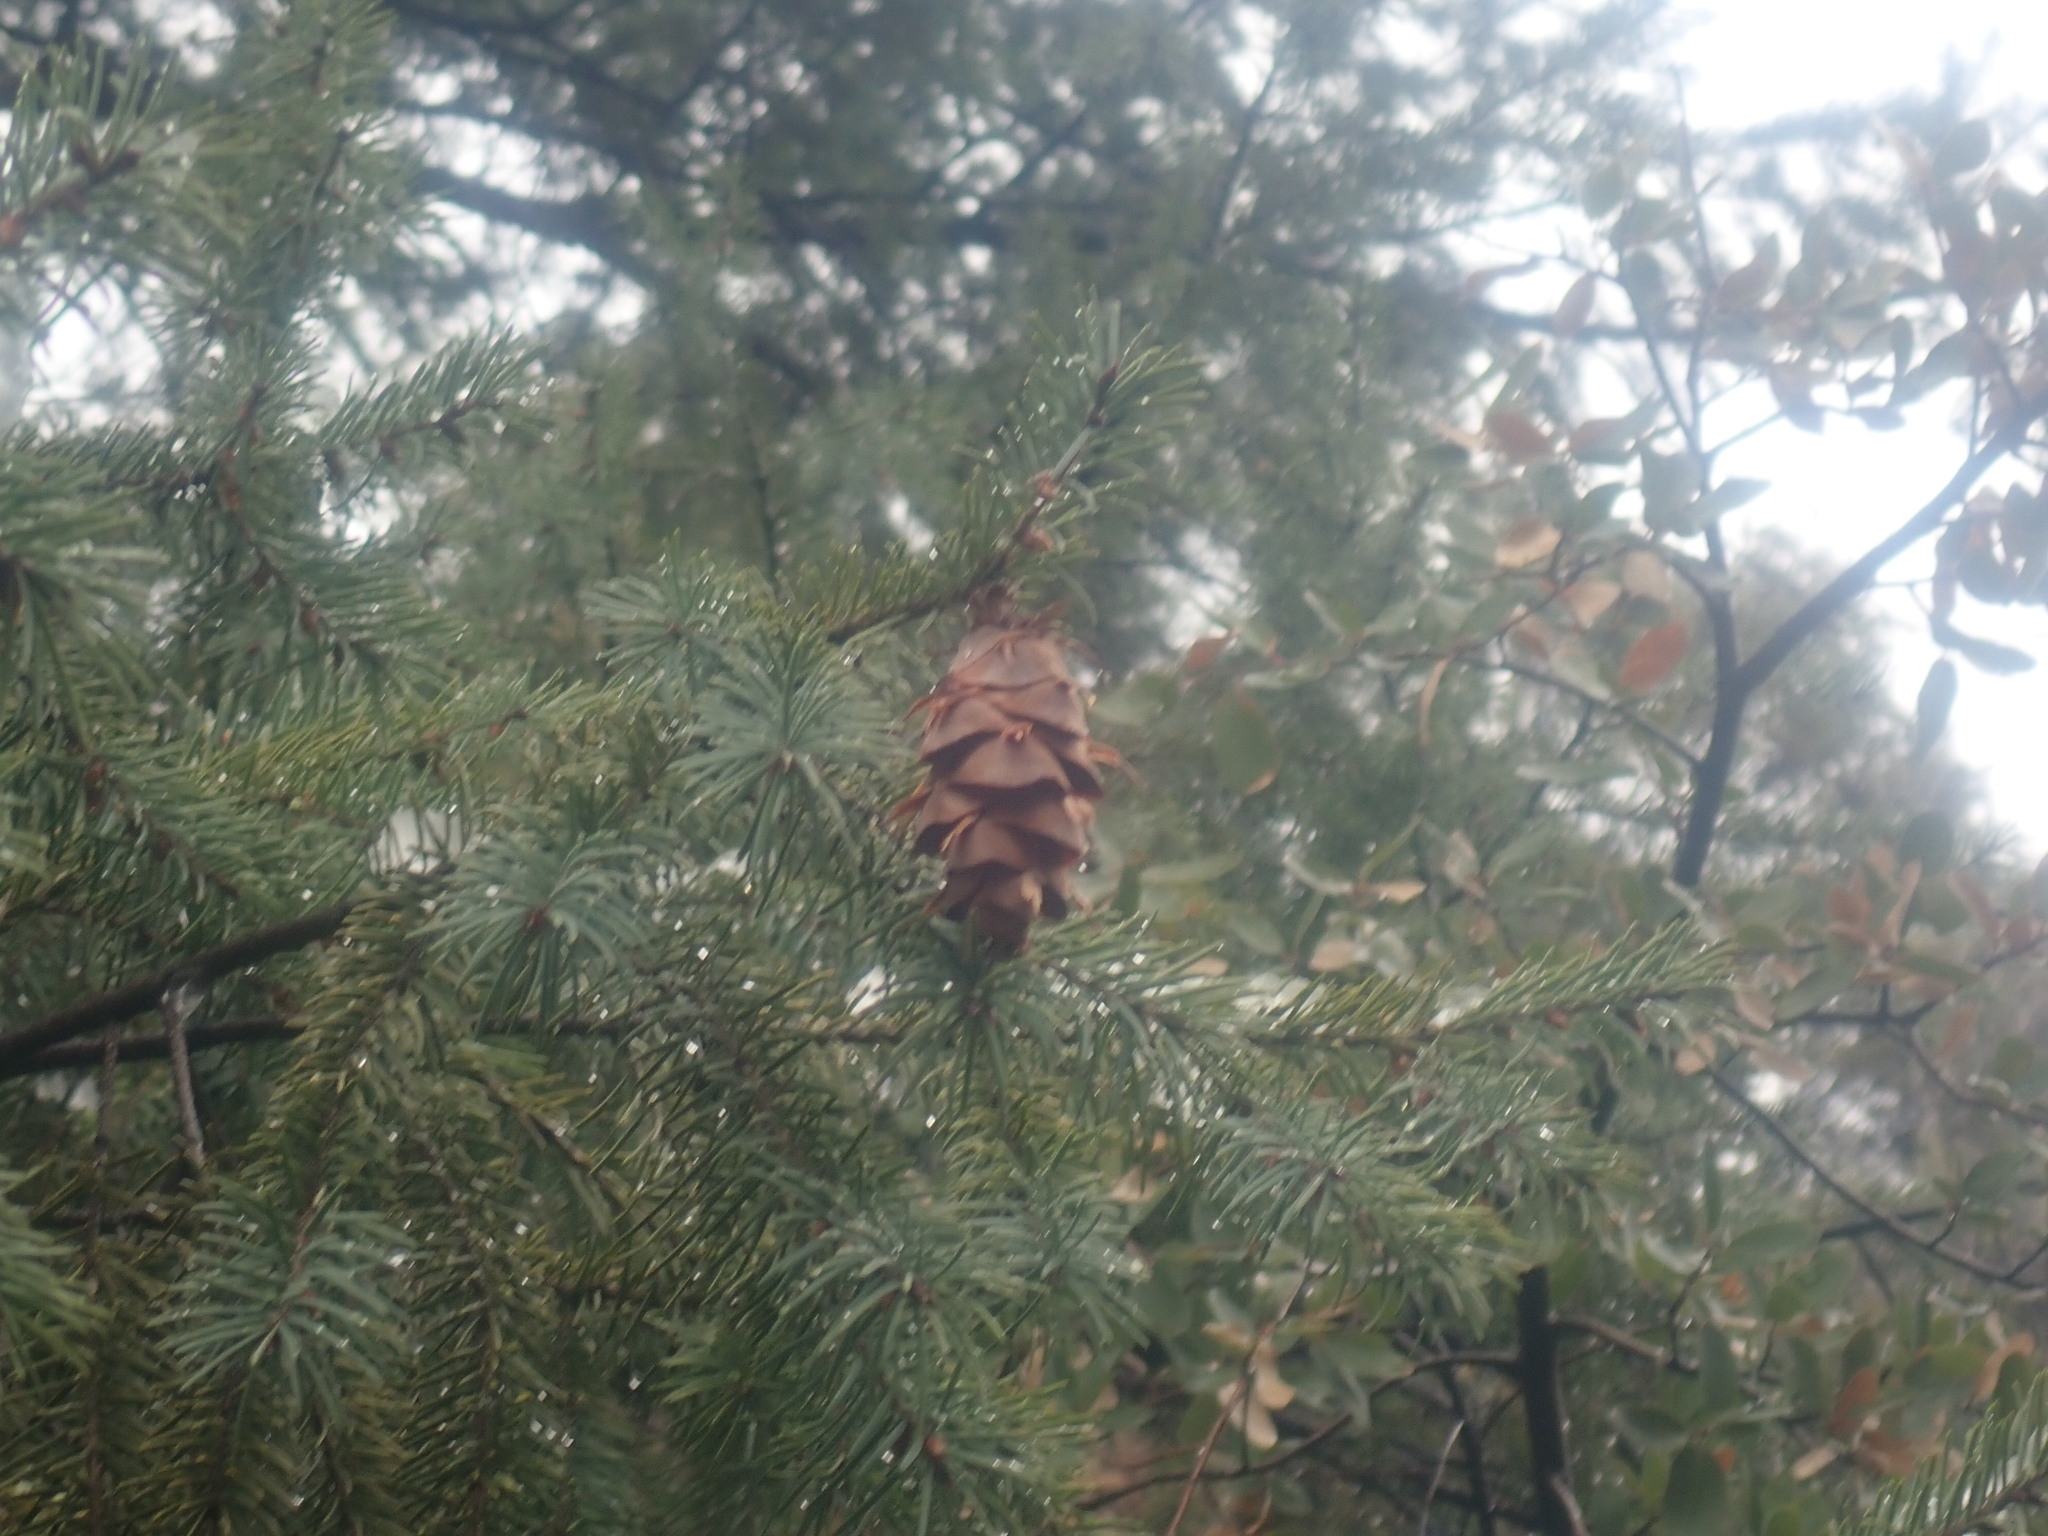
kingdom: Plantae
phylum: Tracheophyta
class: Pinopsida
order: Pinales
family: Pinaceae
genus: Pseudotsuga
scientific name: Pseudotsuga menziesii
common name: Douglas fir
